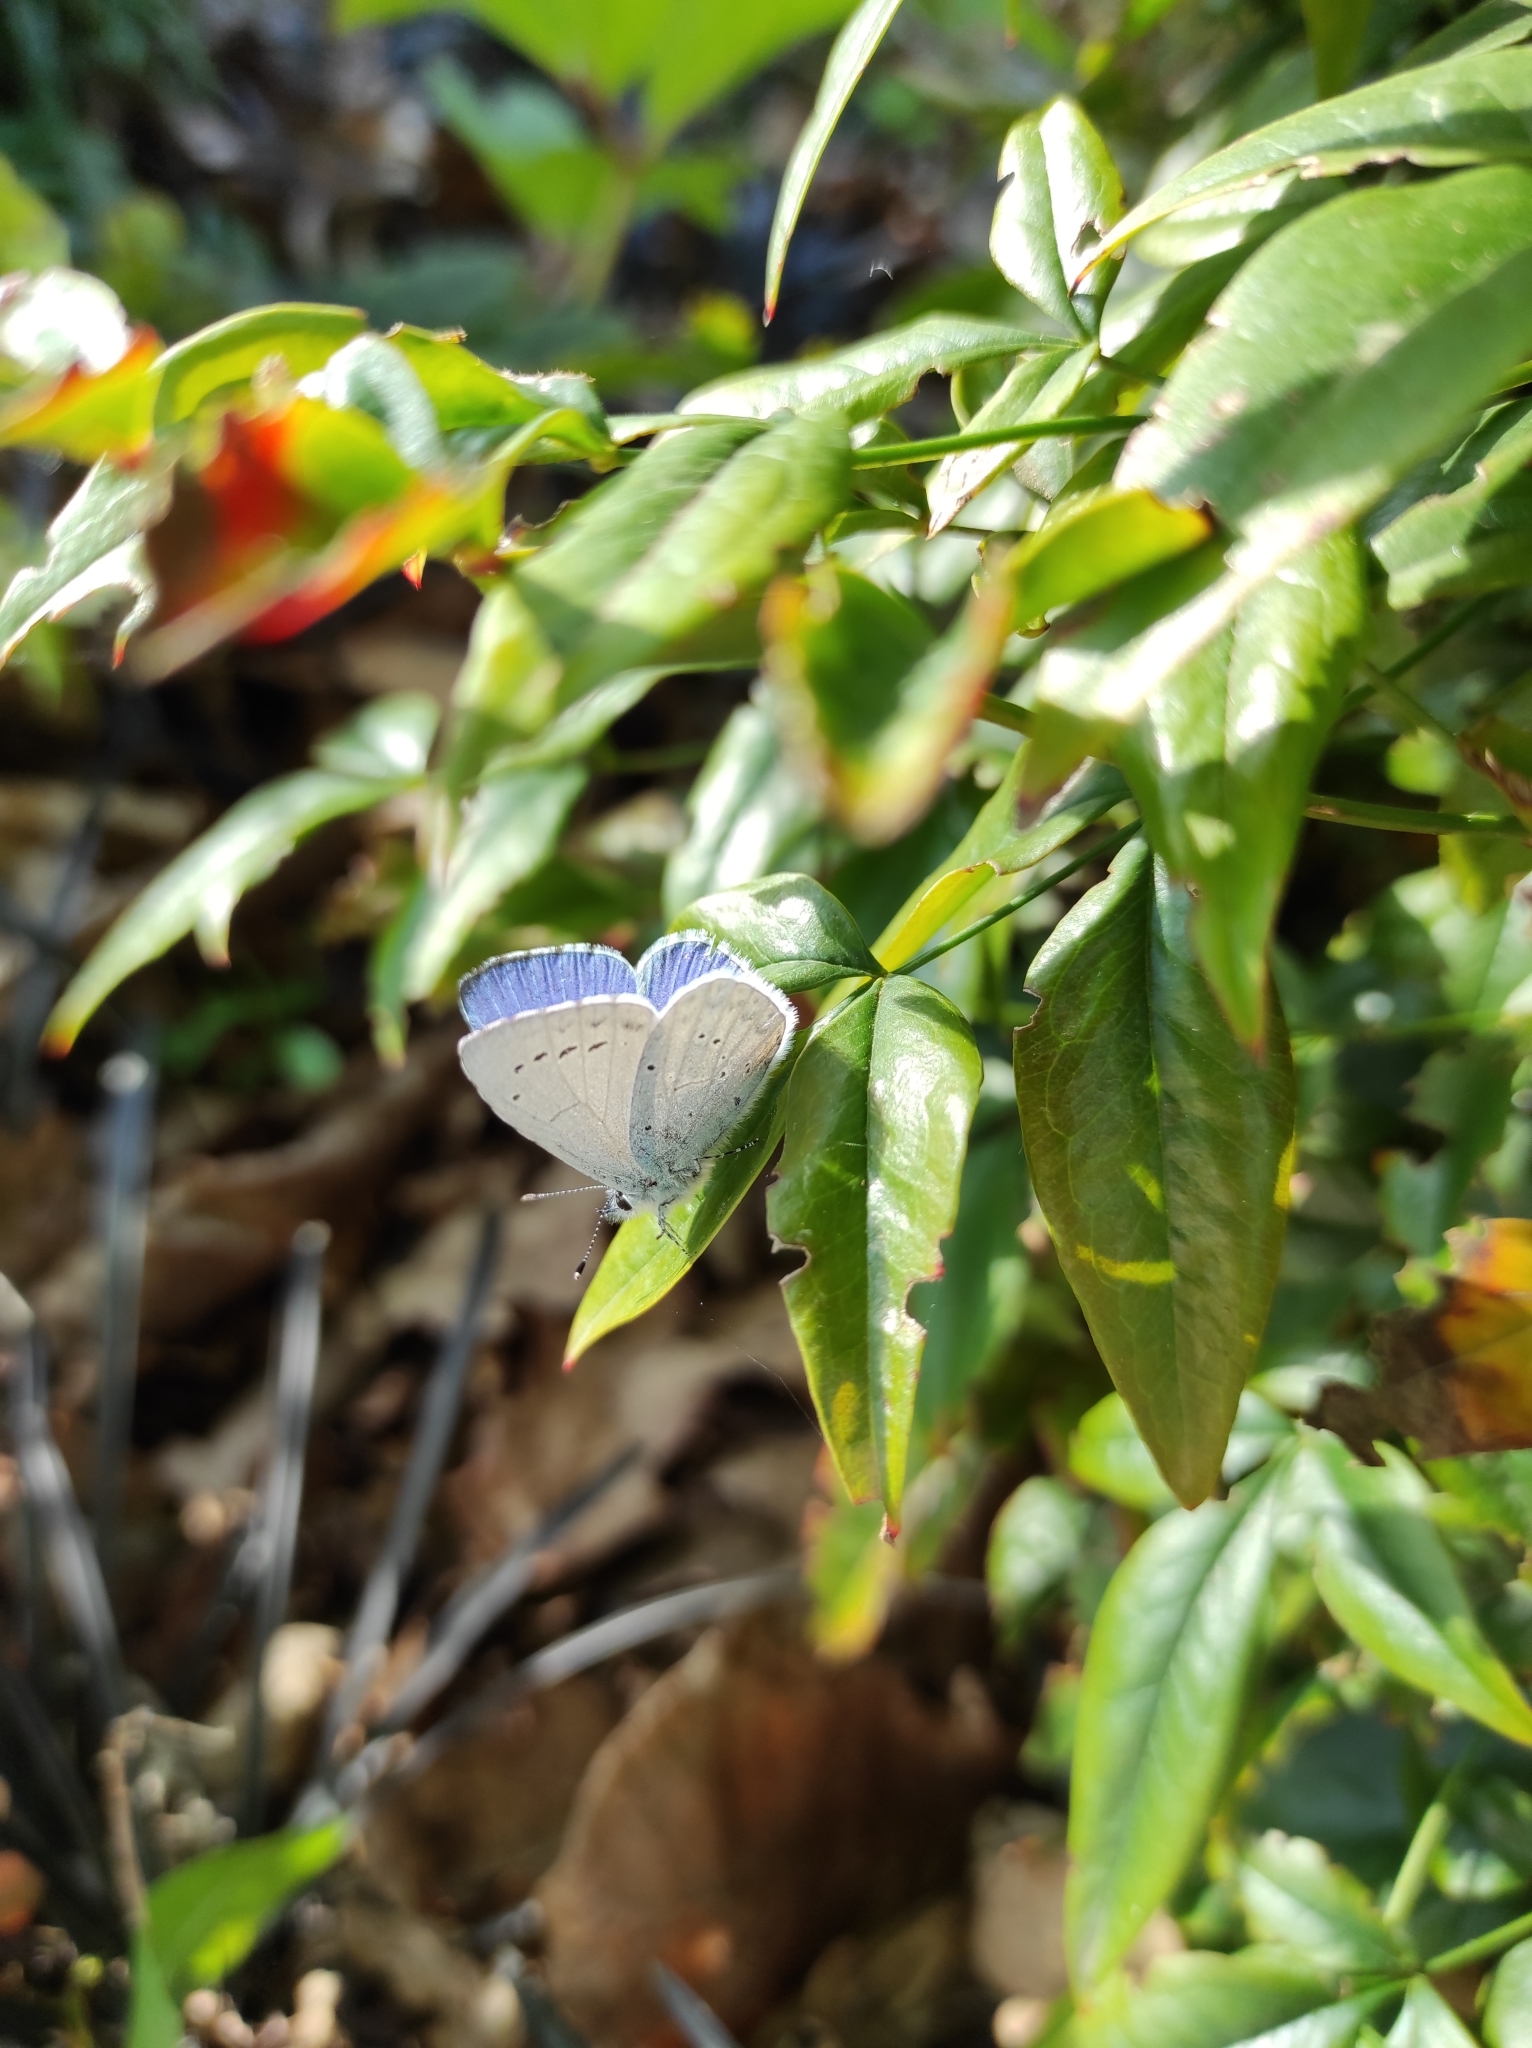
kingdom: Animalia
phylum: Arthropoda
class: Insecta
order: Lepidoptera
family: Lycaenidae
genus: Celastrina
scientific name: Celastrina argiolus
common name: Holly blue
